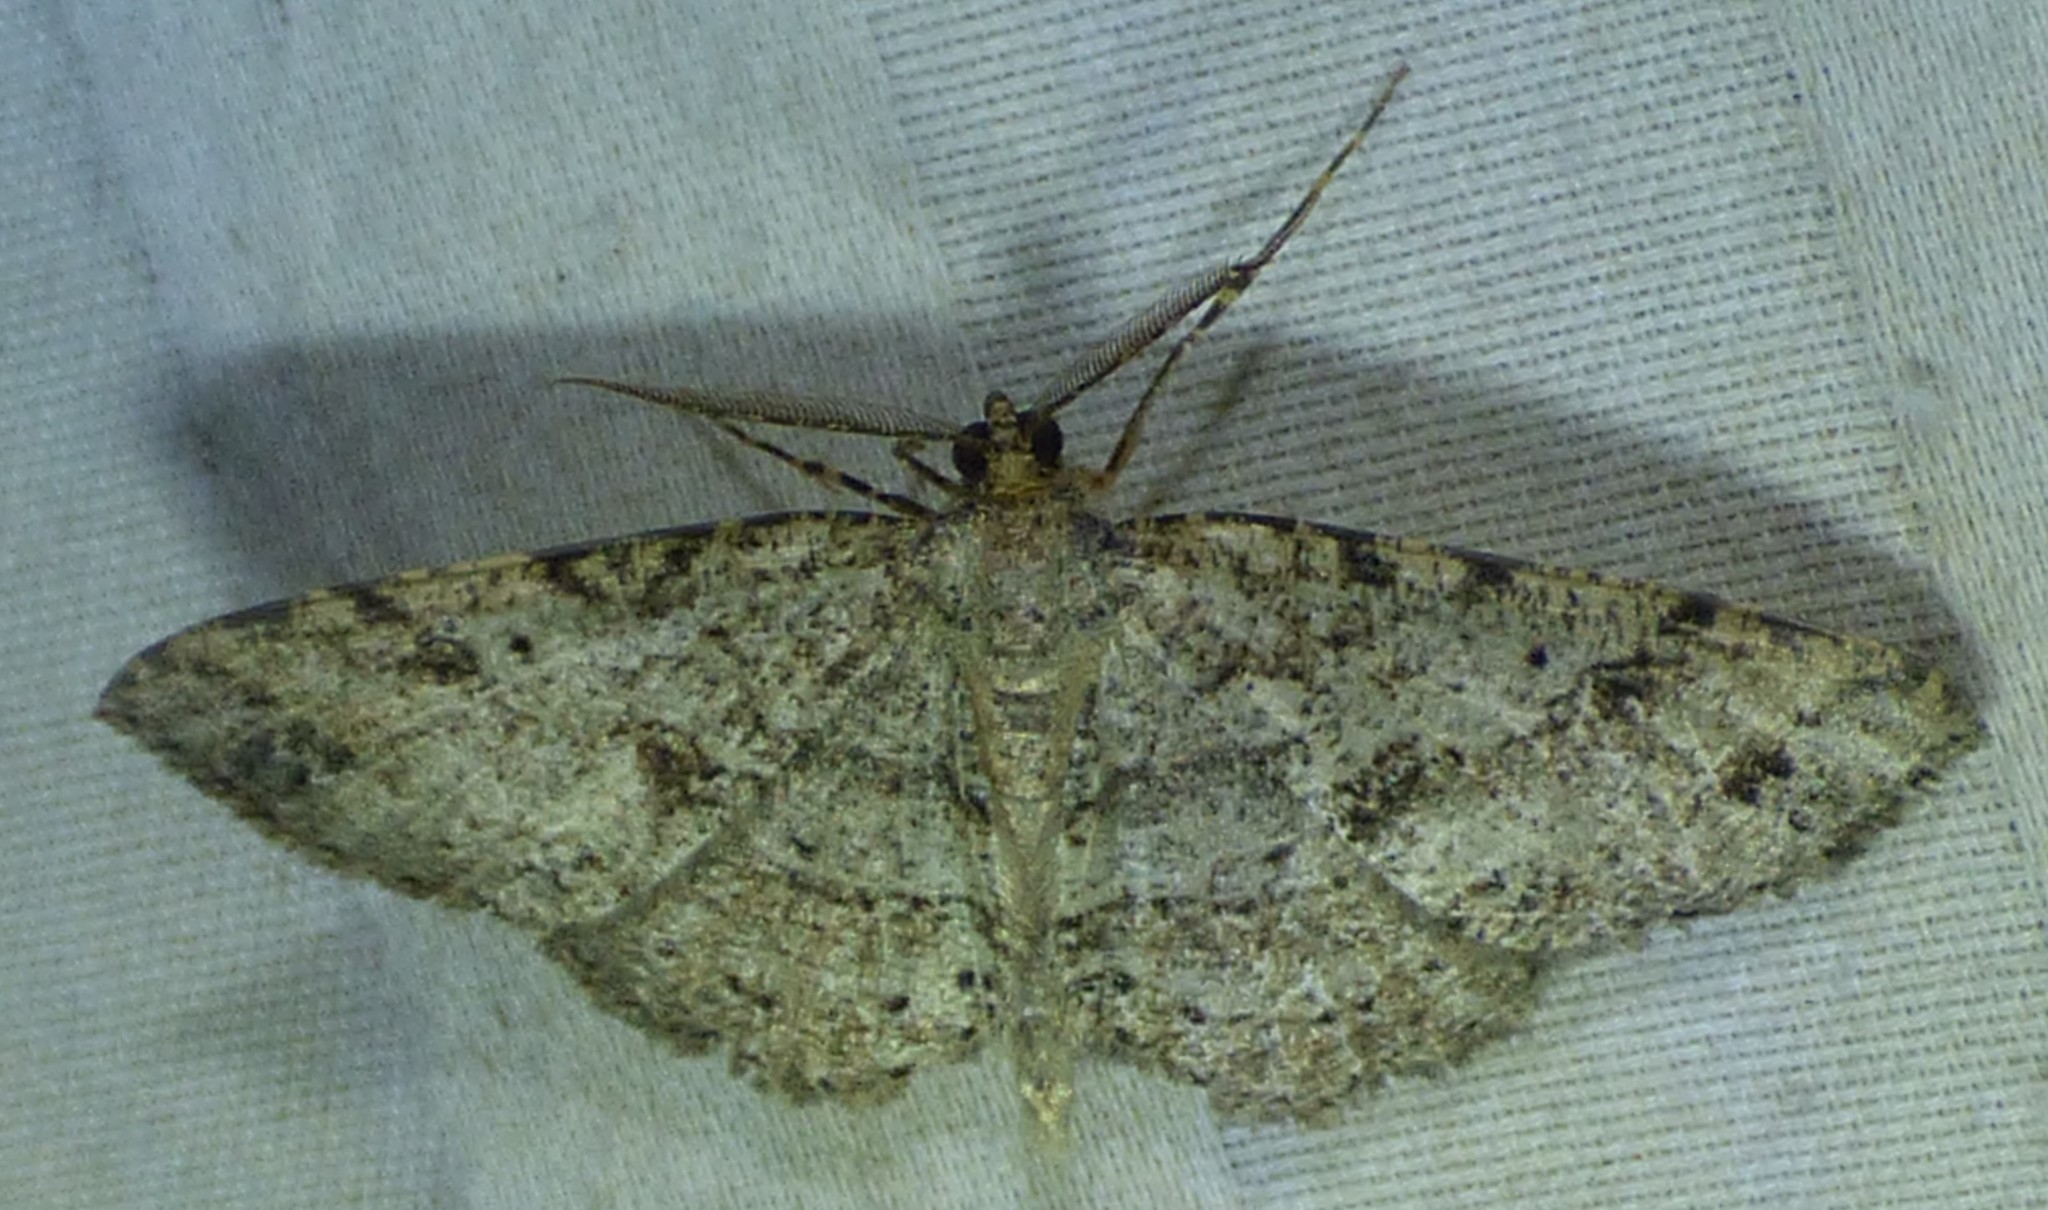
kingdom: Animalia
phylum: Arthropoda
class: Insecta
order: Lepidoptera
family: Geometridae
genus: Melanolophia
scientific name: Melanolophia canadaria
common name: Canadian melanolophia
